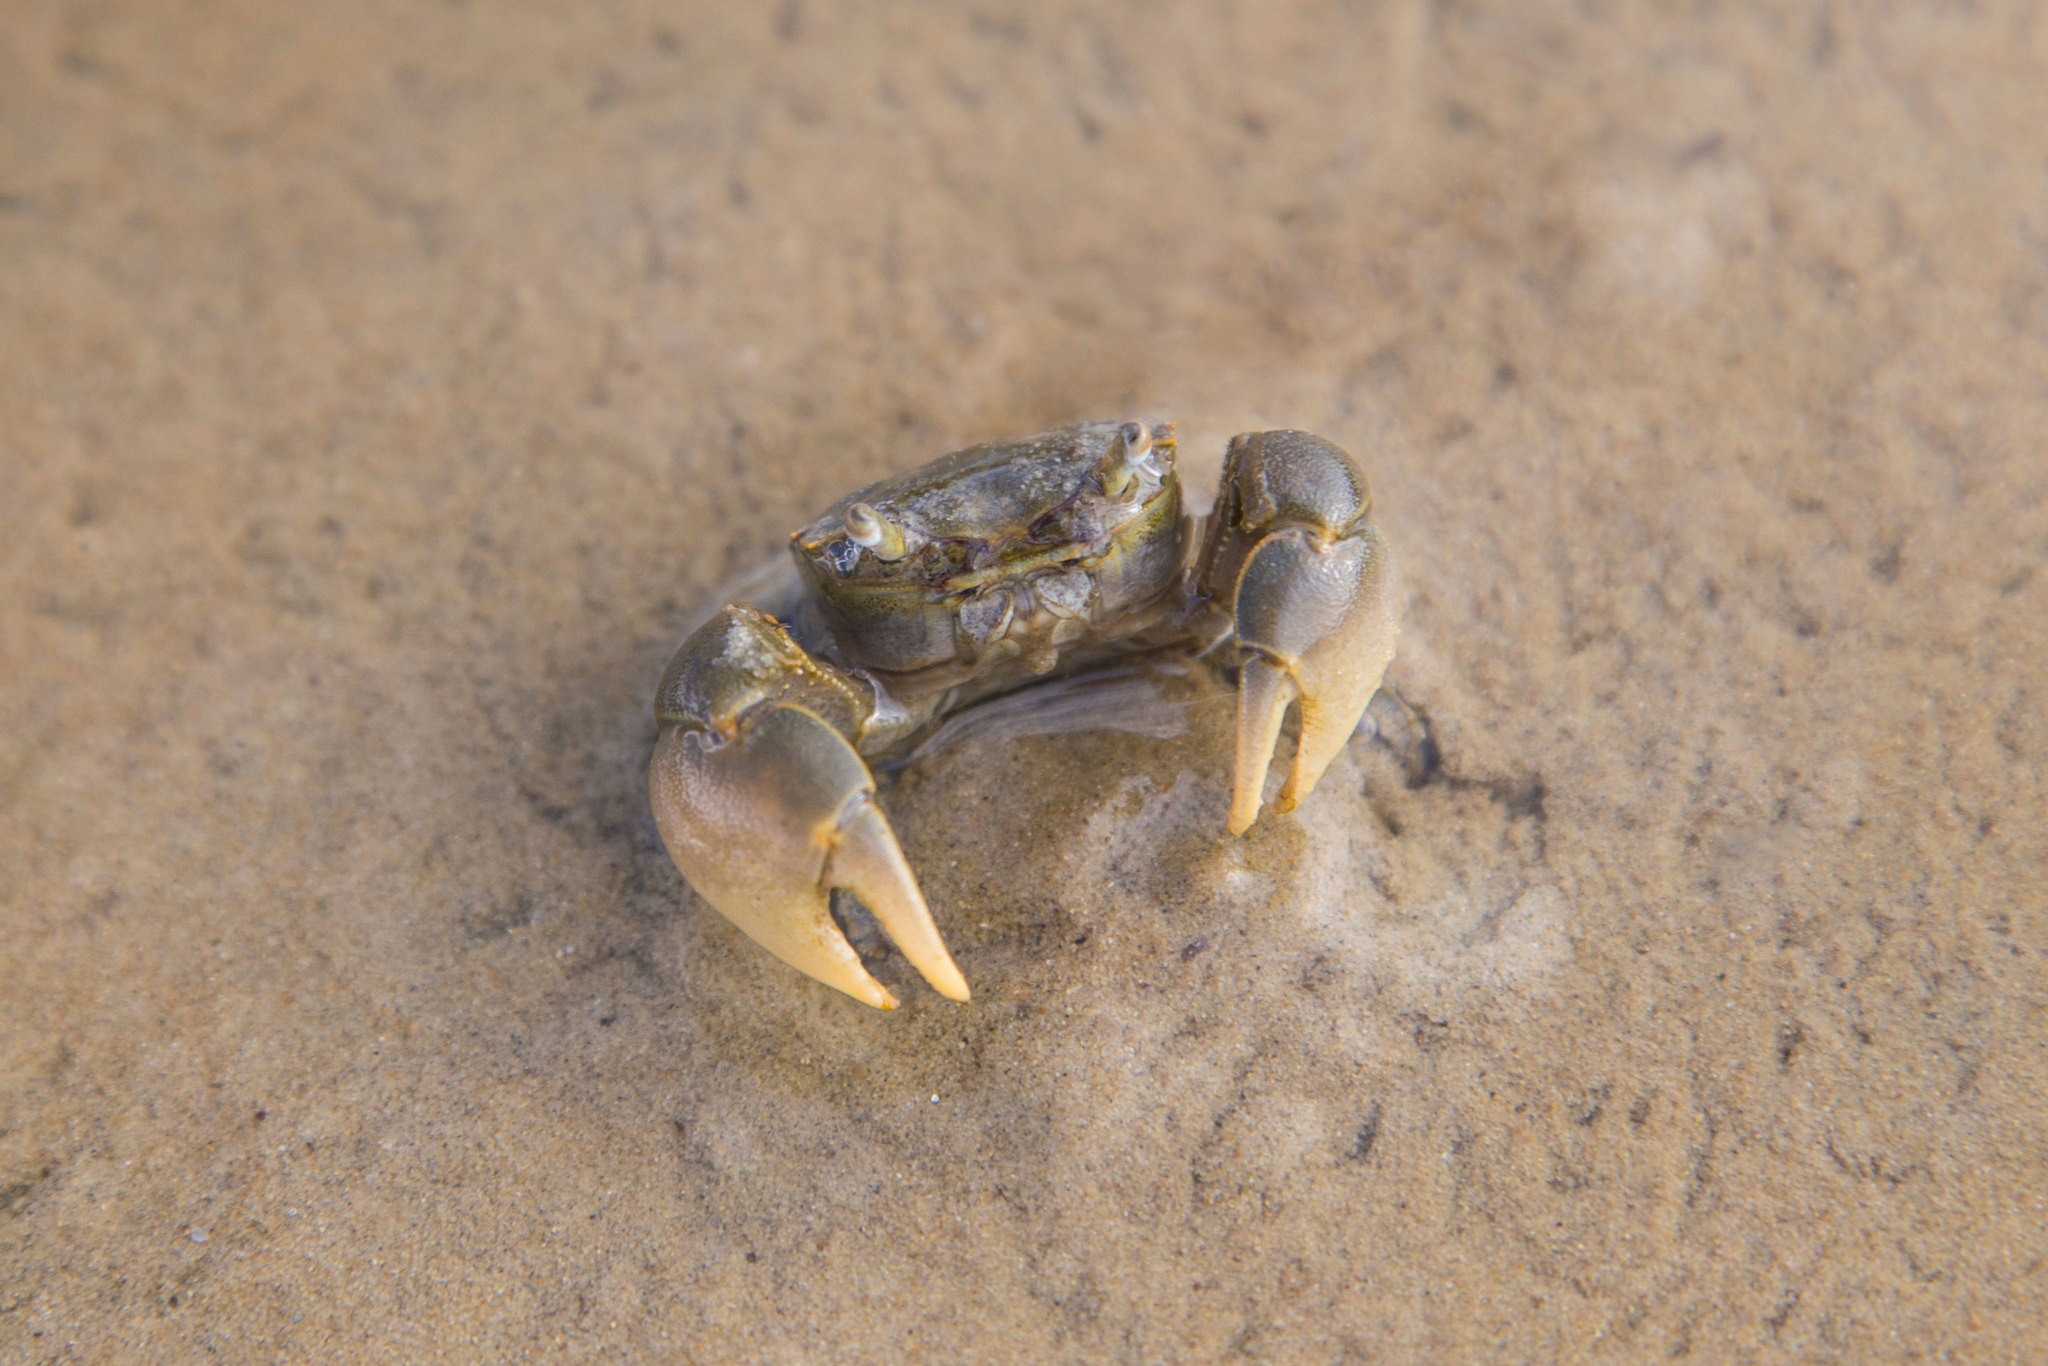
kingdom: Animalia
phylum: Arthropoda
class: Malacostraca
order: Decapoda
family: Varunidae
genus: Austrohelice
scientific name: Austrohelice crassa
